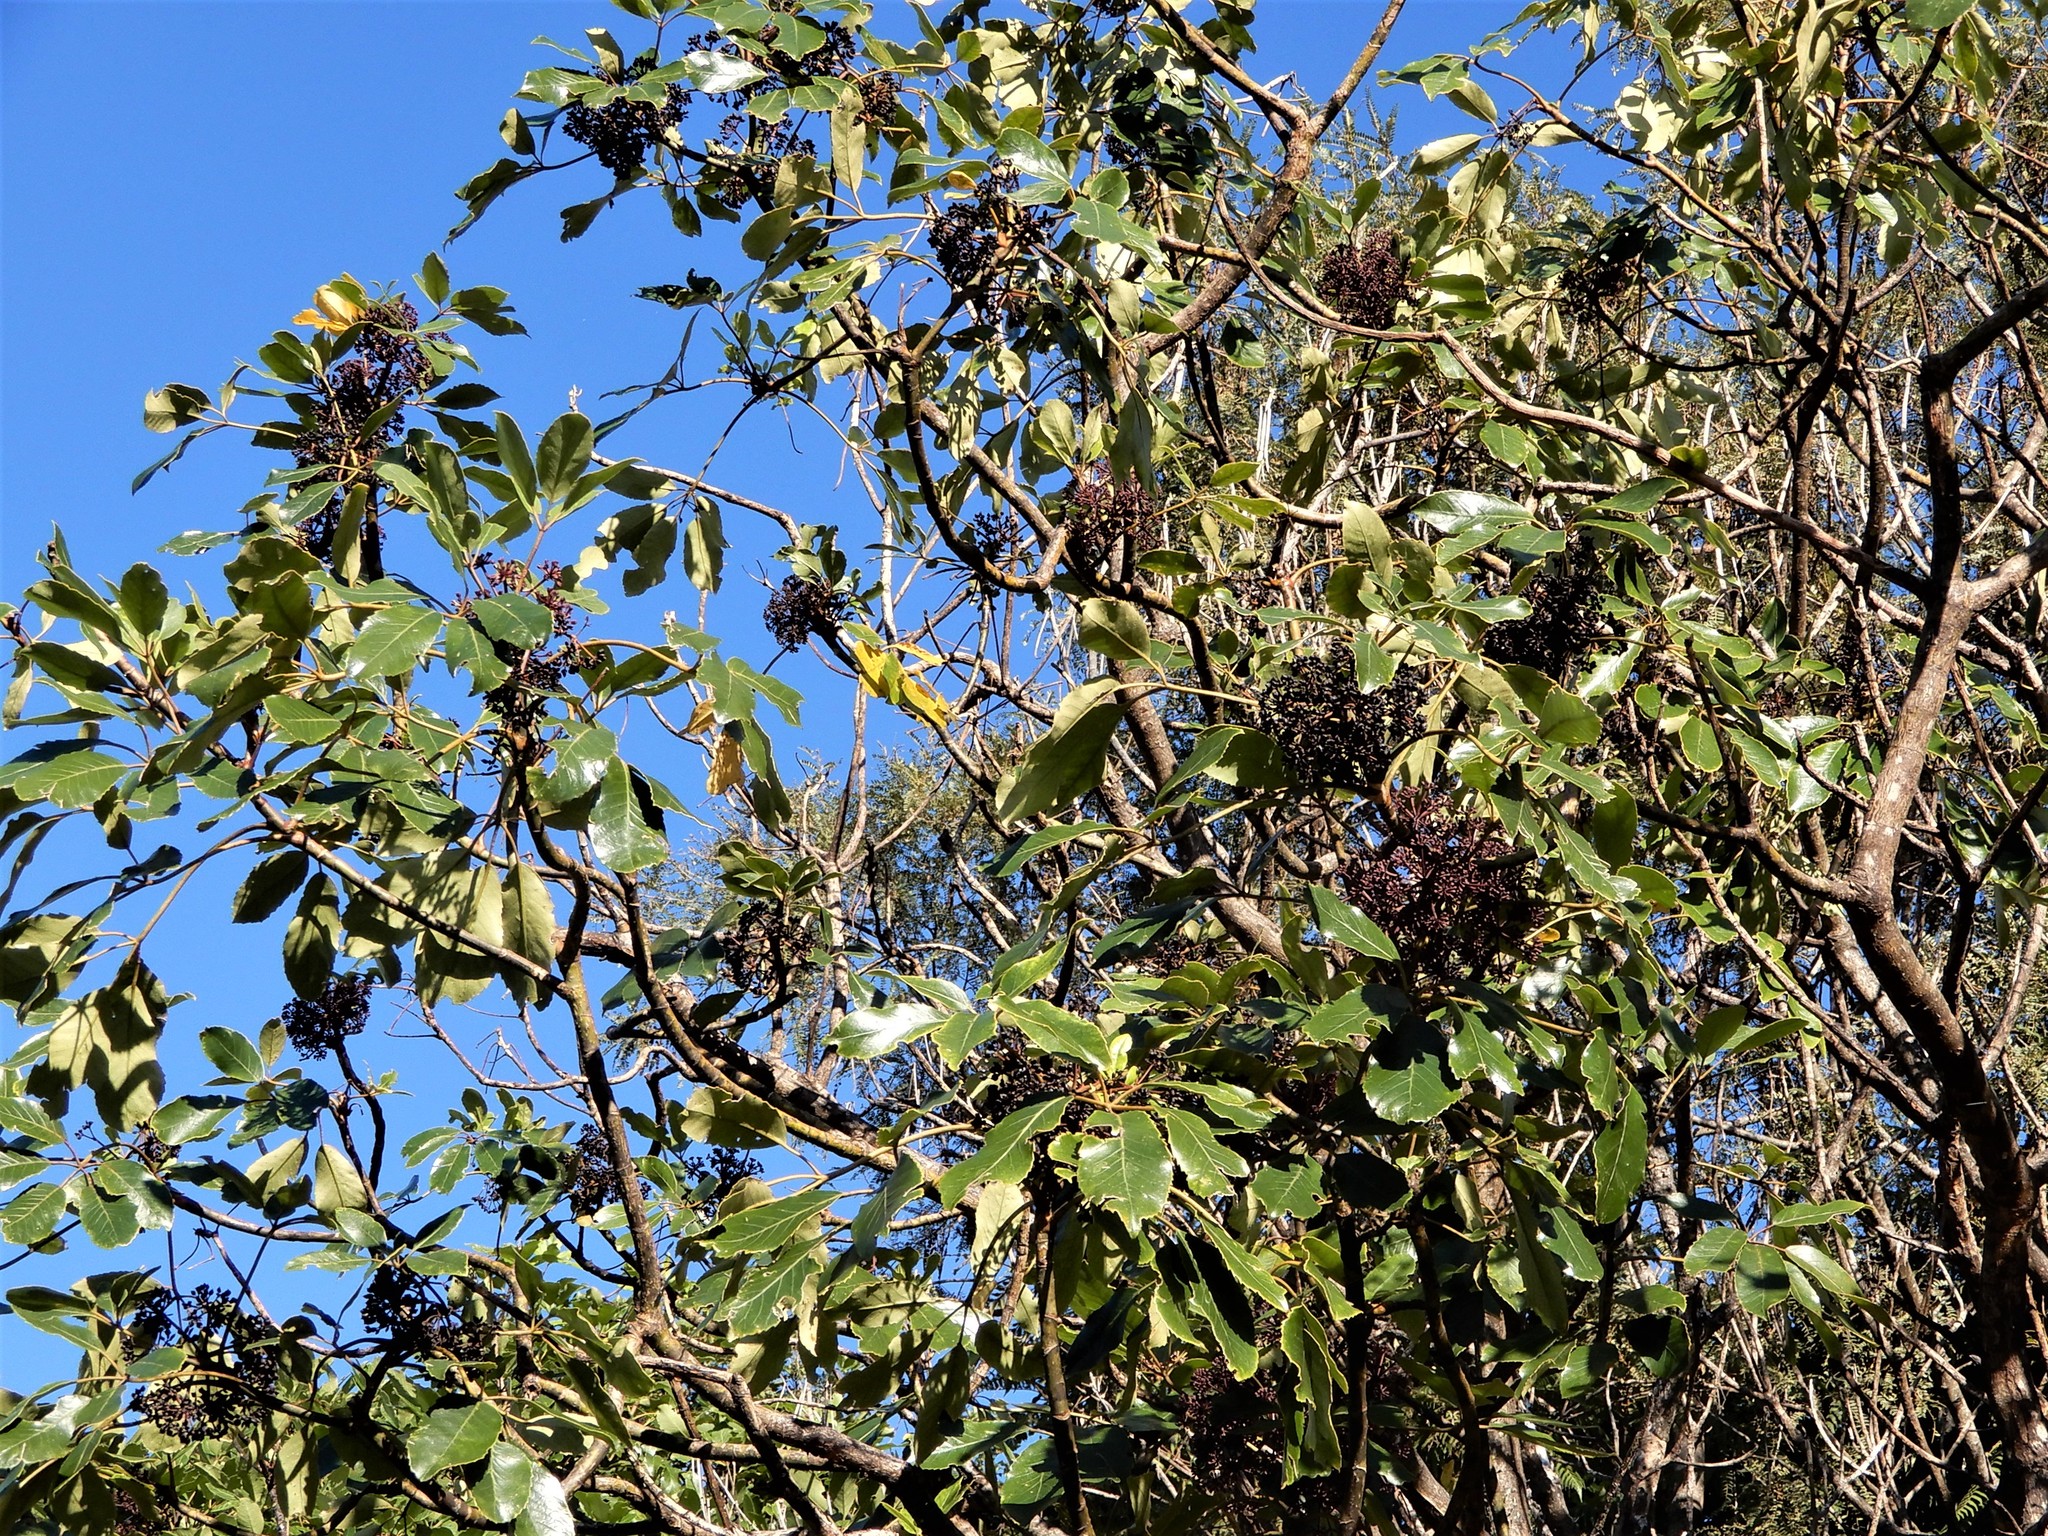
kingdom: Plantae
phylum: Tracheophyta
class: Magnoliopsida
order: Apiales
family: Araliaceae
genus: Neopanax
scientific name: Neopanax arboreus
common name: Five-fingers
